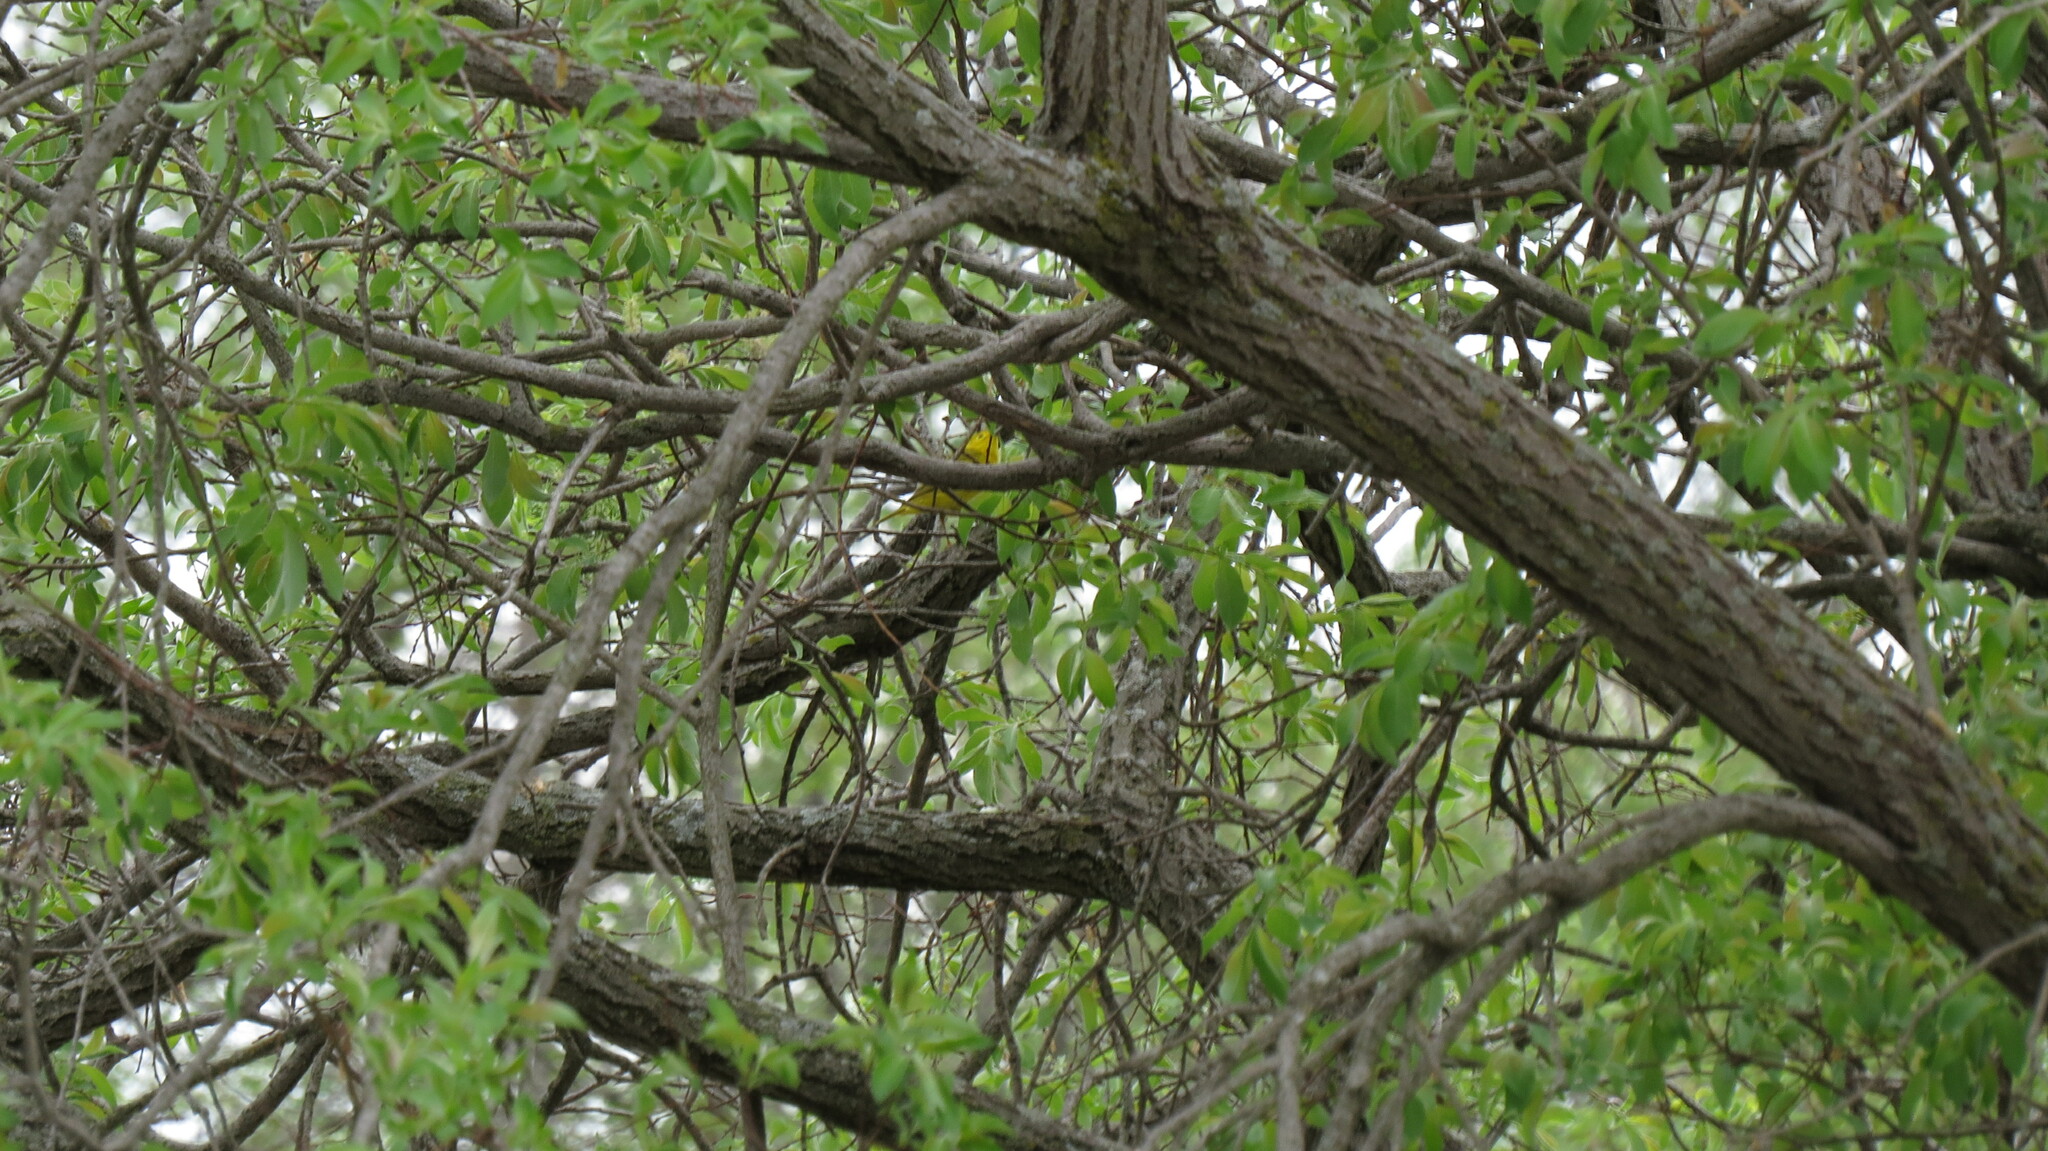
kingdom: Animalia
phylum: Chordata
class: Aves
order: Passeriformes
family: Parulidae
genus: Setophaga
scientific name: Setophaga petechia
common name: Yellow warbler
